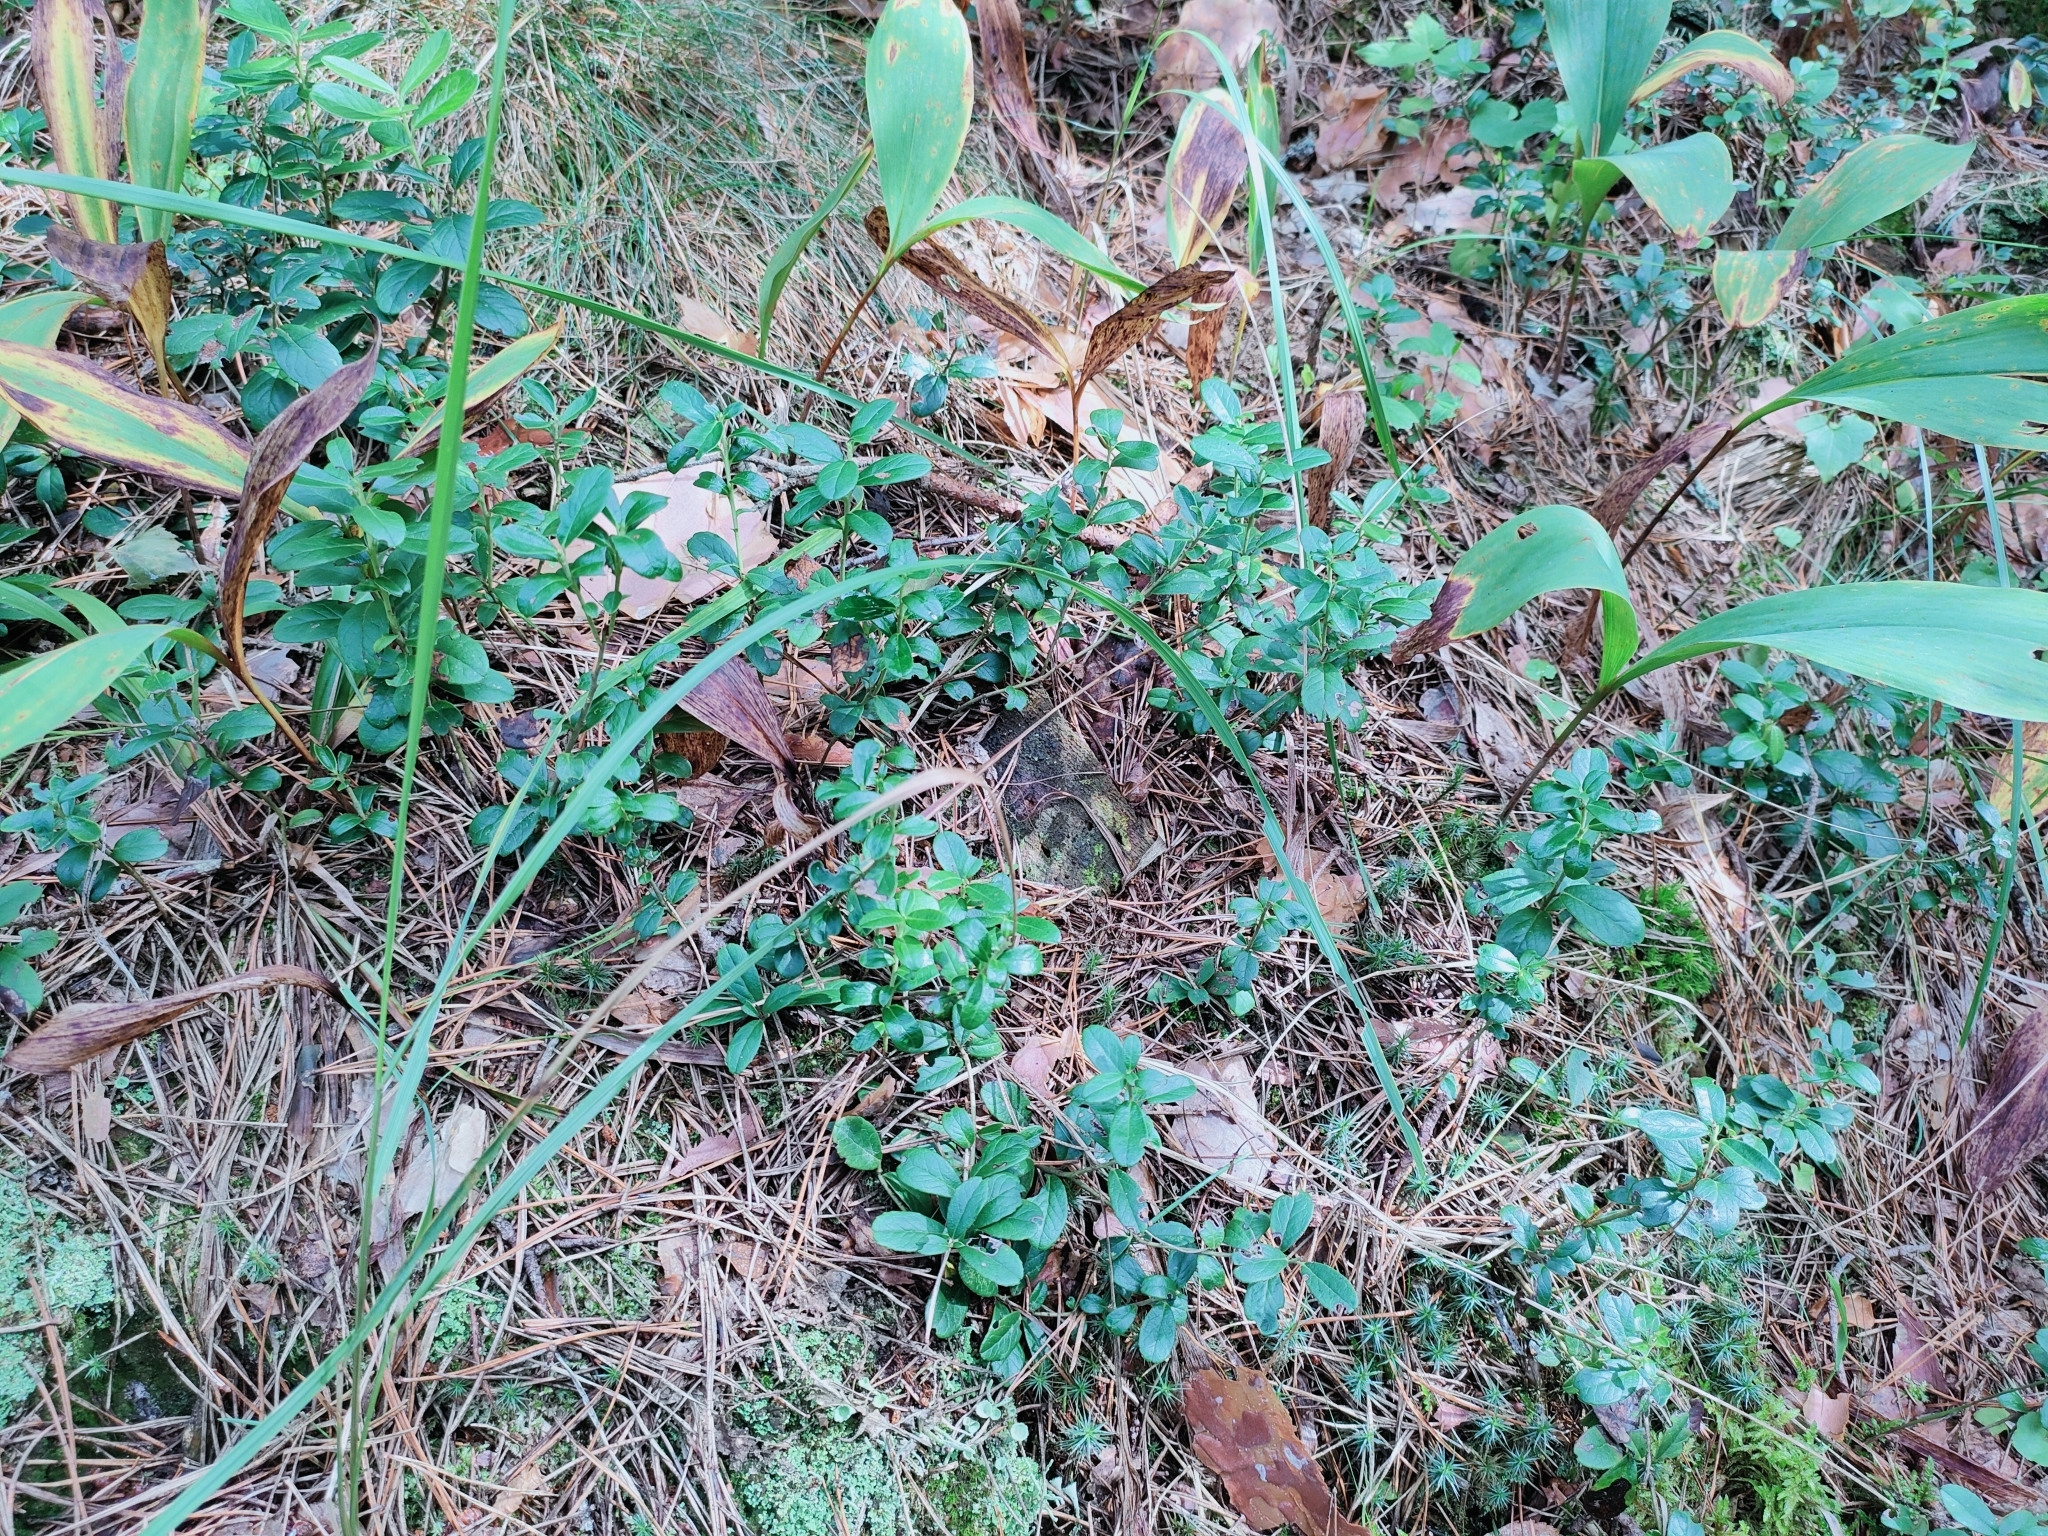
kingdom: Plantae
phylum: Tracheophyta
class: Magnoliopsida
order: Ericales
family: Ericaceae
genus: Vaccinium
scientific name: Vaccinium vitis-idaea
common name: Cowberry
